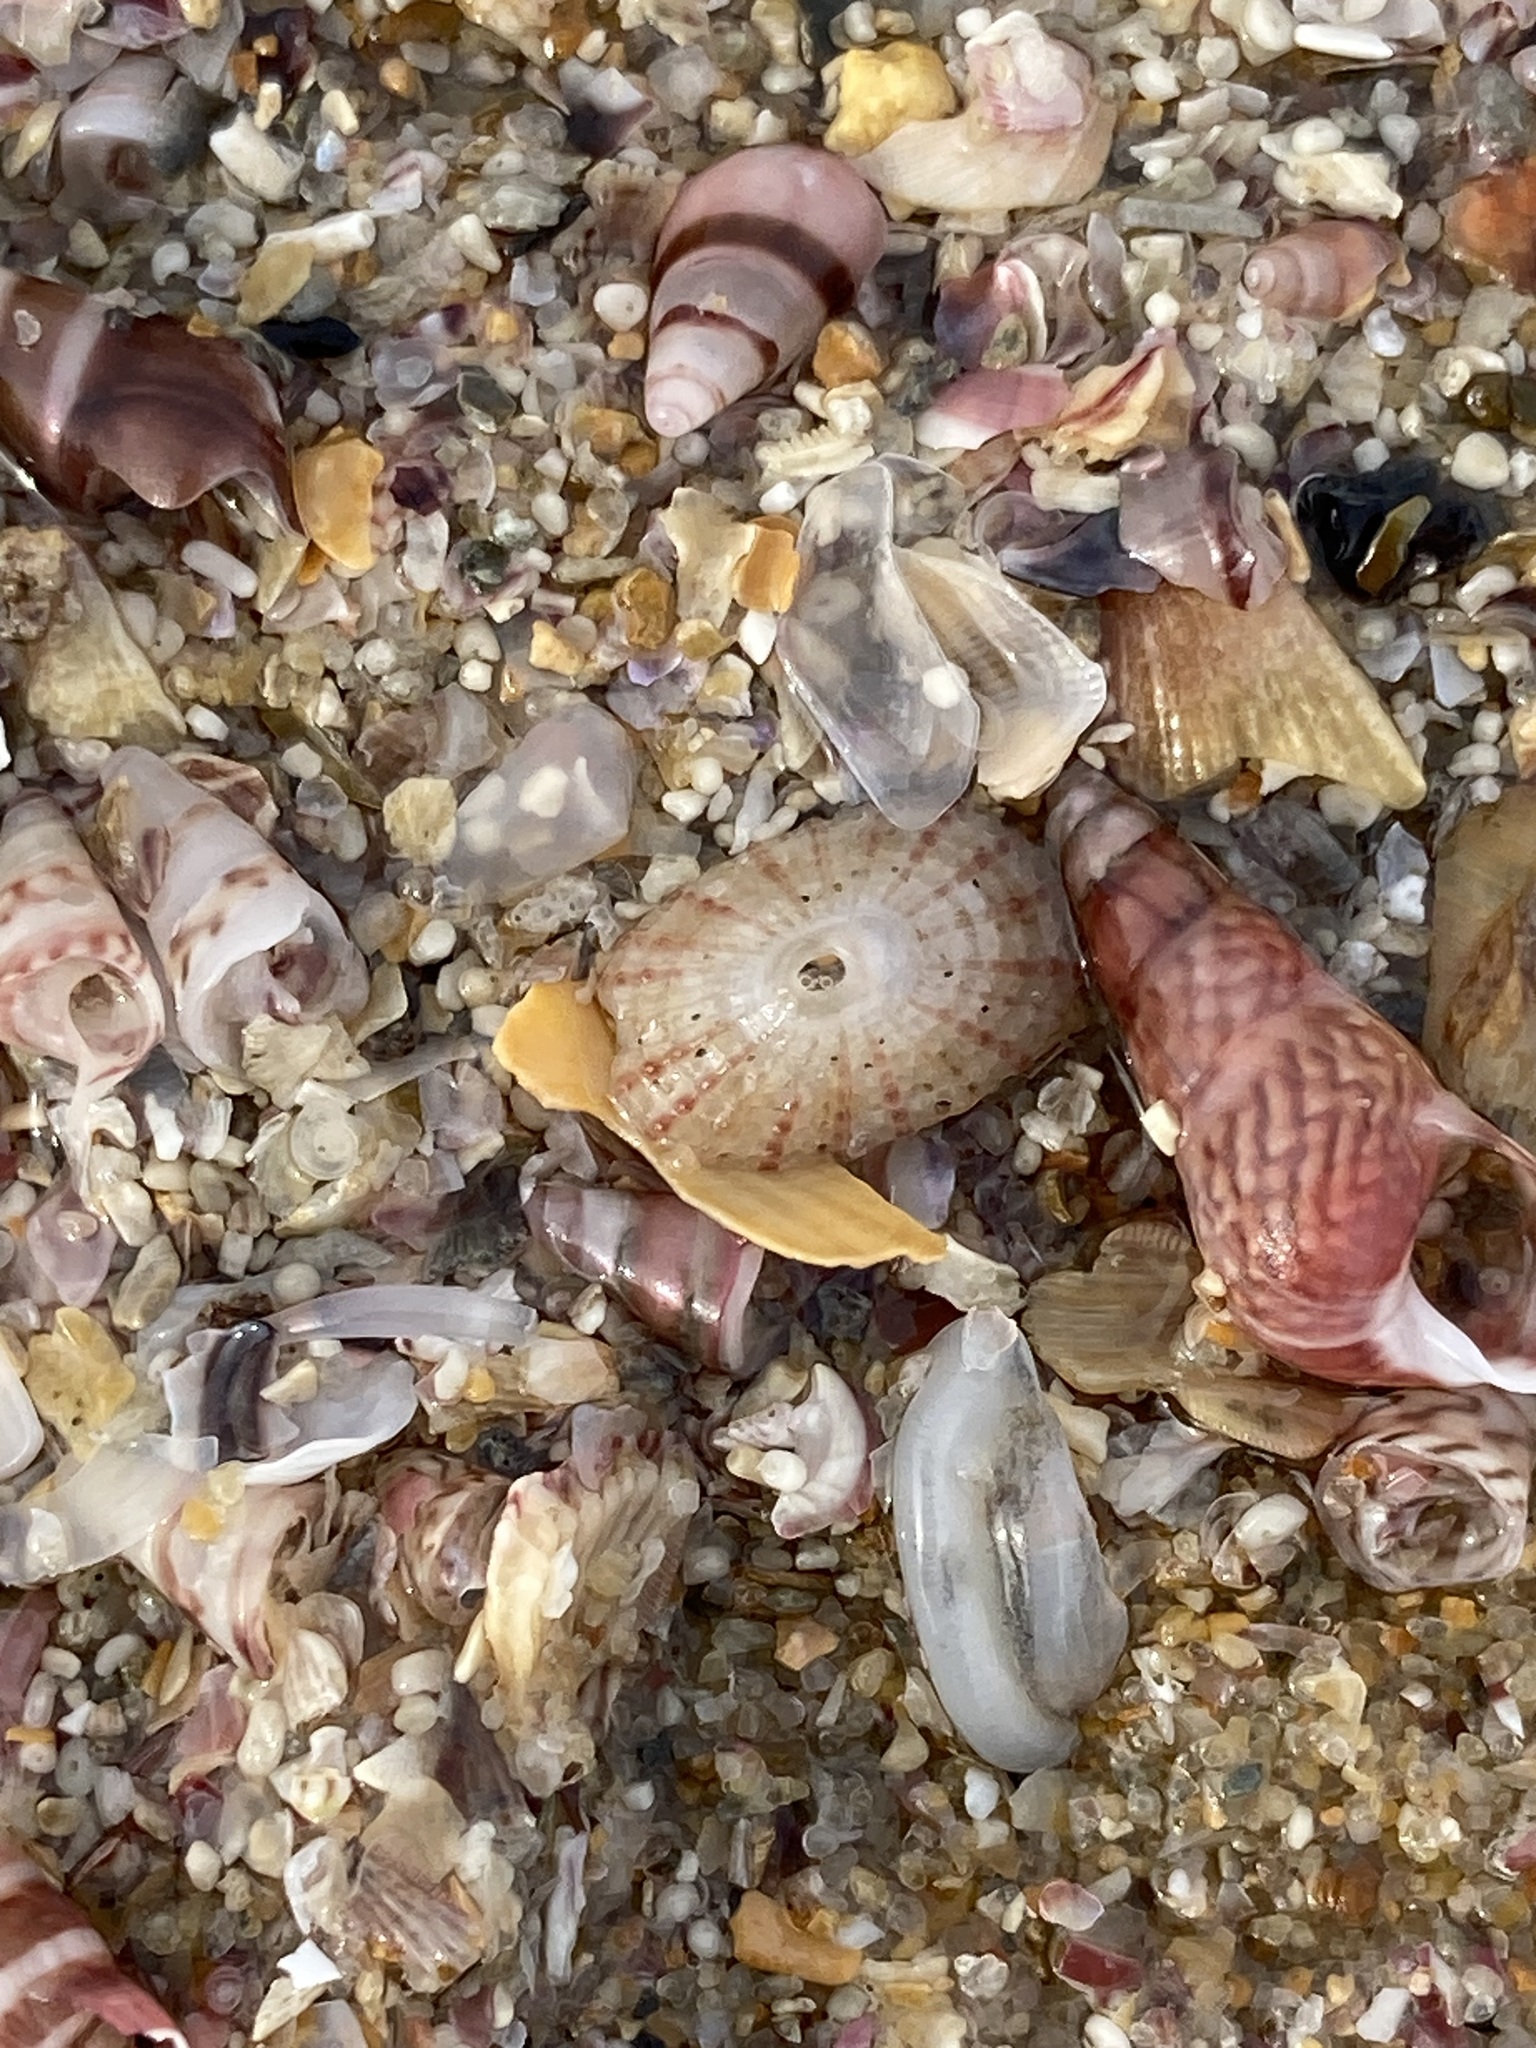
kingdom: Animalia
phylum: Mollusca
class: Gastropoda
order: Lepetellida
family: Fissurellidae
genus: Diodora
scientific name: Diodora lineata
